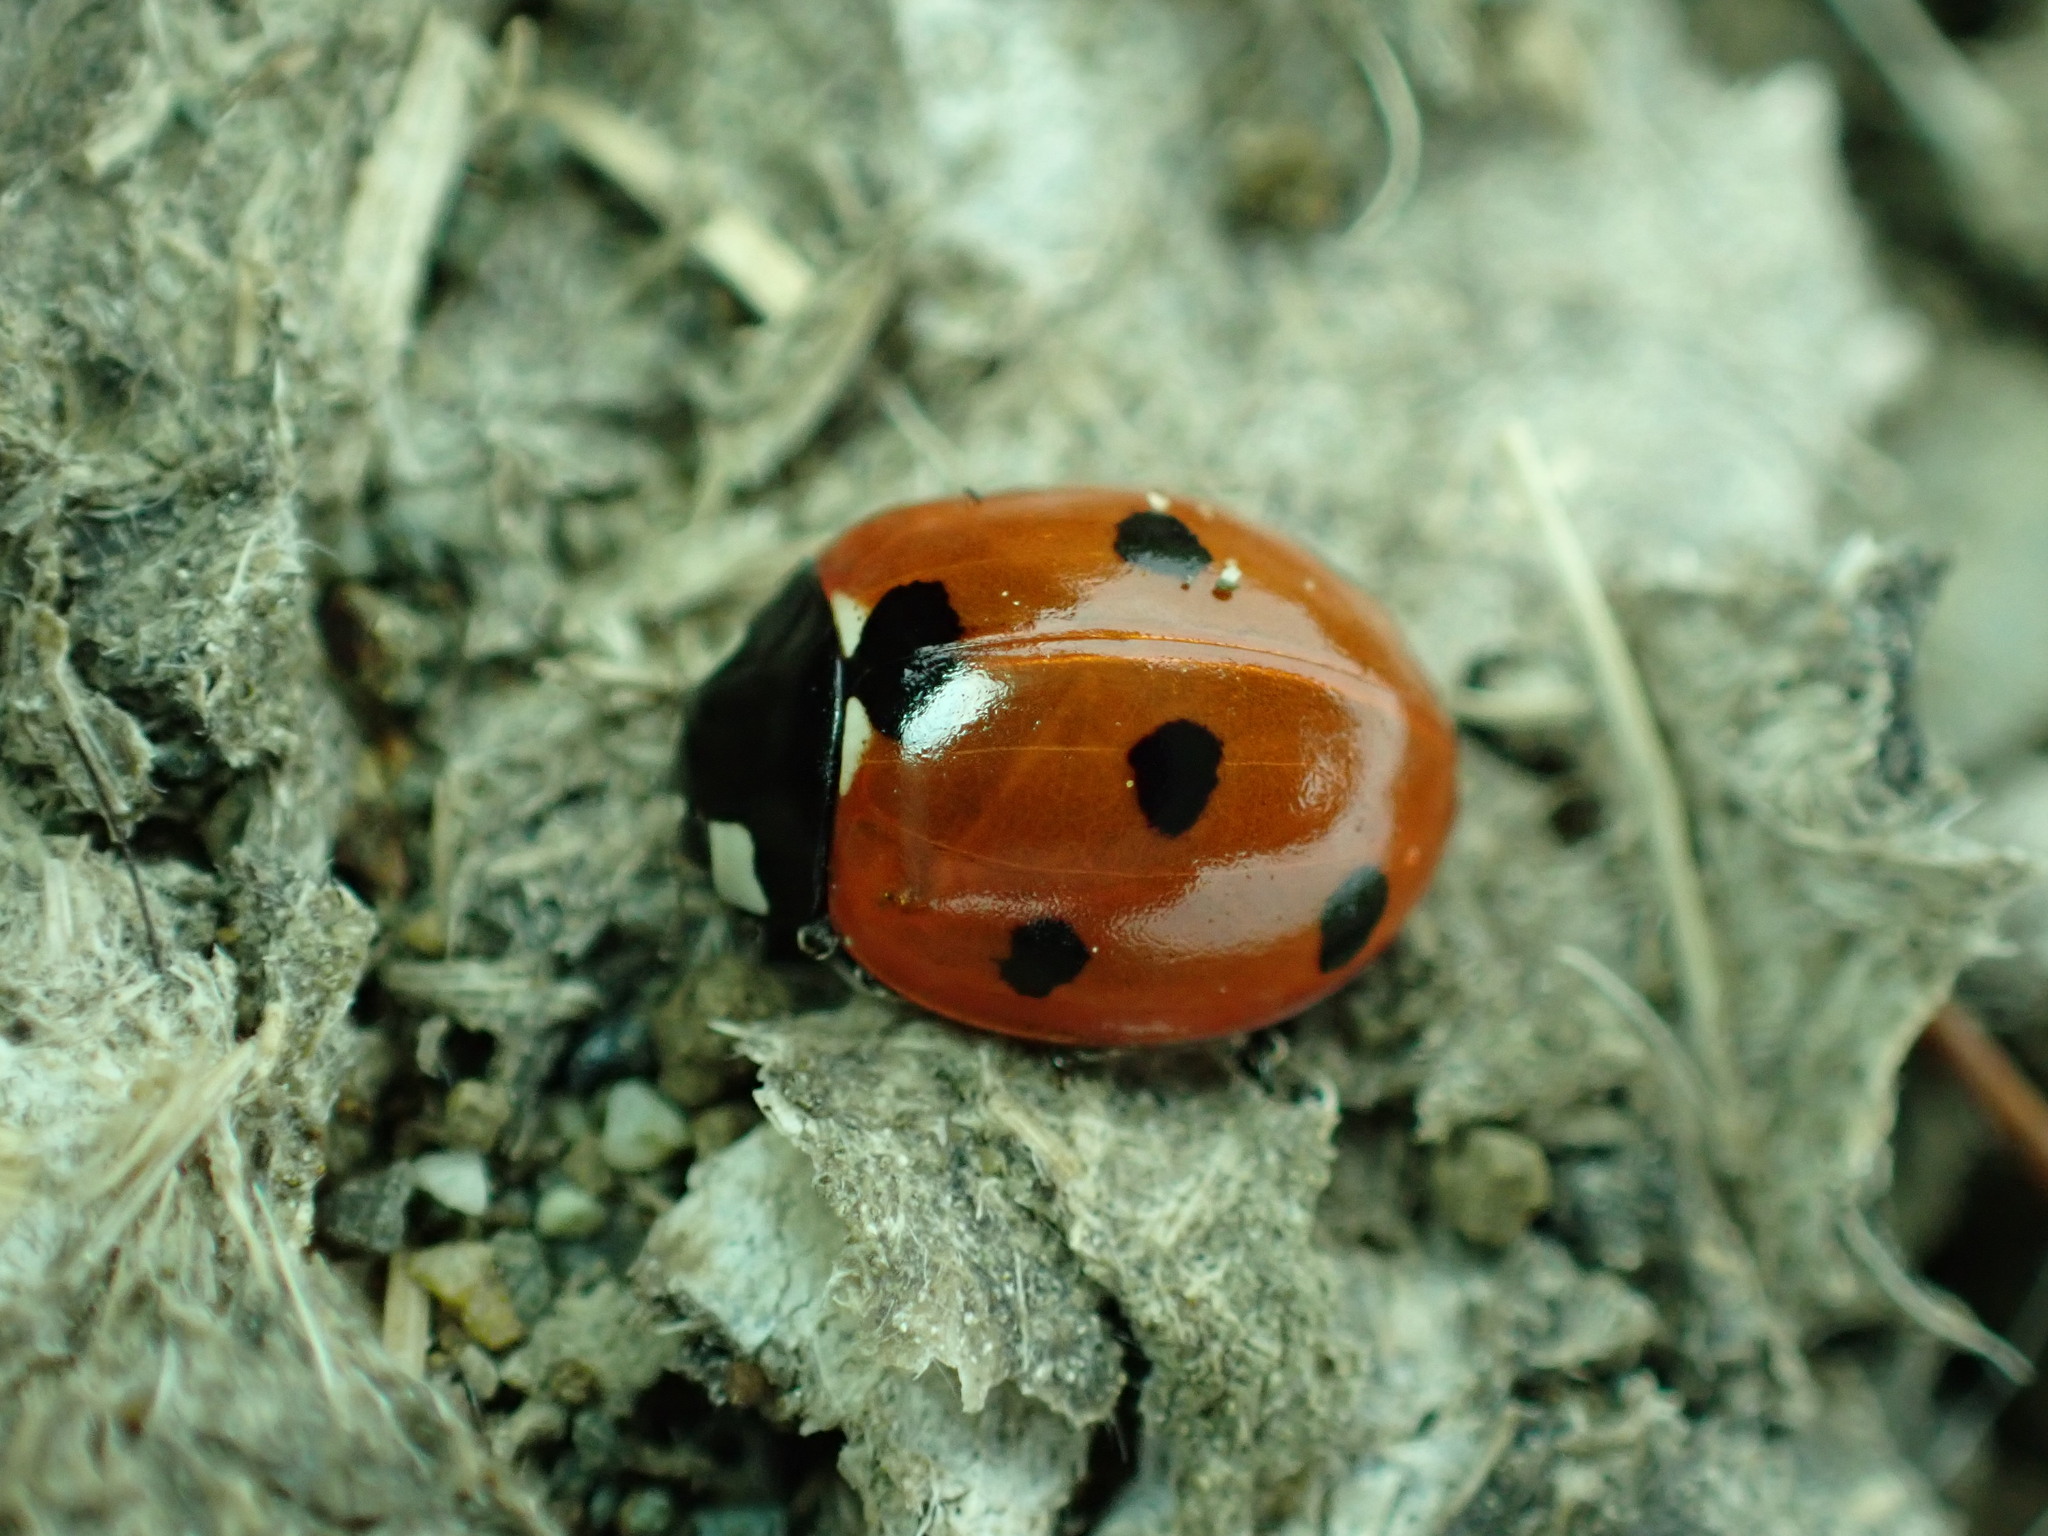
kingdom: Animalia
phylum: Arthropoda
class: Insecta
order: Coleoptera
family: Coccinellidae
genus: Coccinella
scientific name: Coccinella septempunctata
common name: Sevenspotted lady beetle
